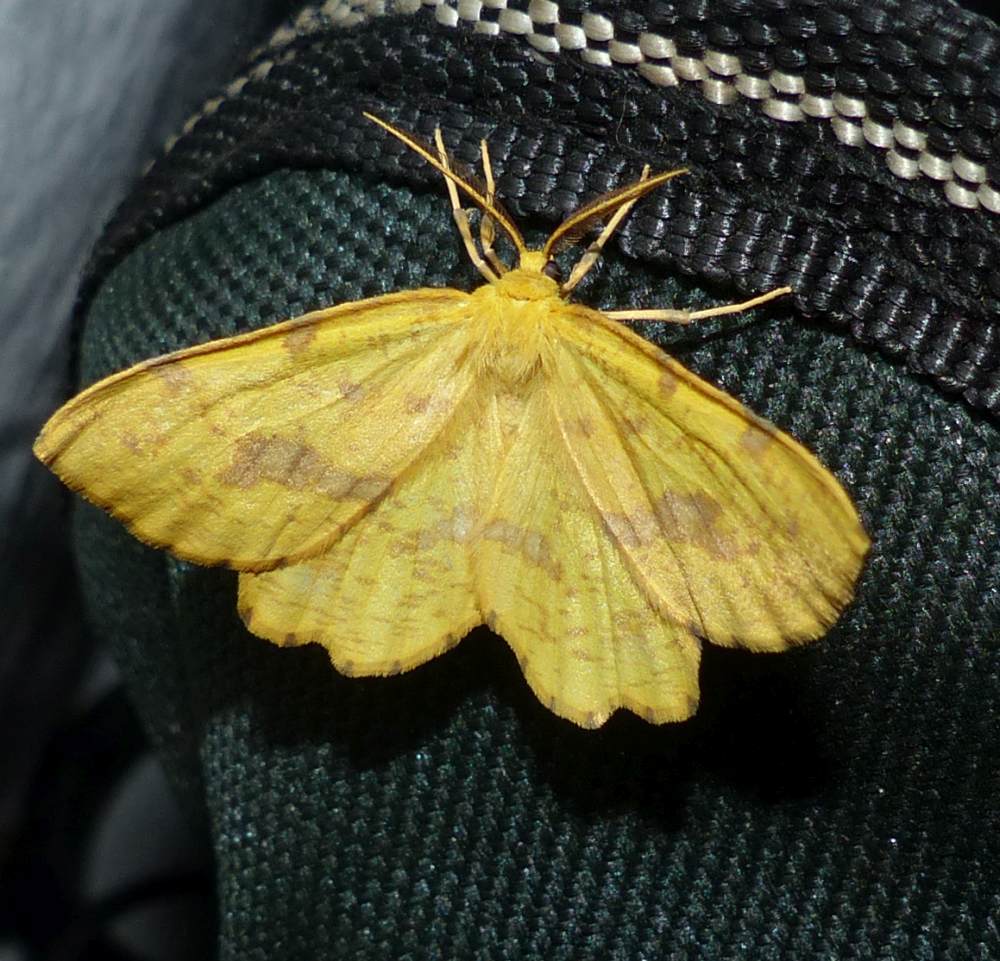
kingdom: Animalia
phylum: Arthropoda
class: Insecta
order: Lepidoptera
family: Geometridae
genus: Xanthotype
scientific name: Xanthotype
